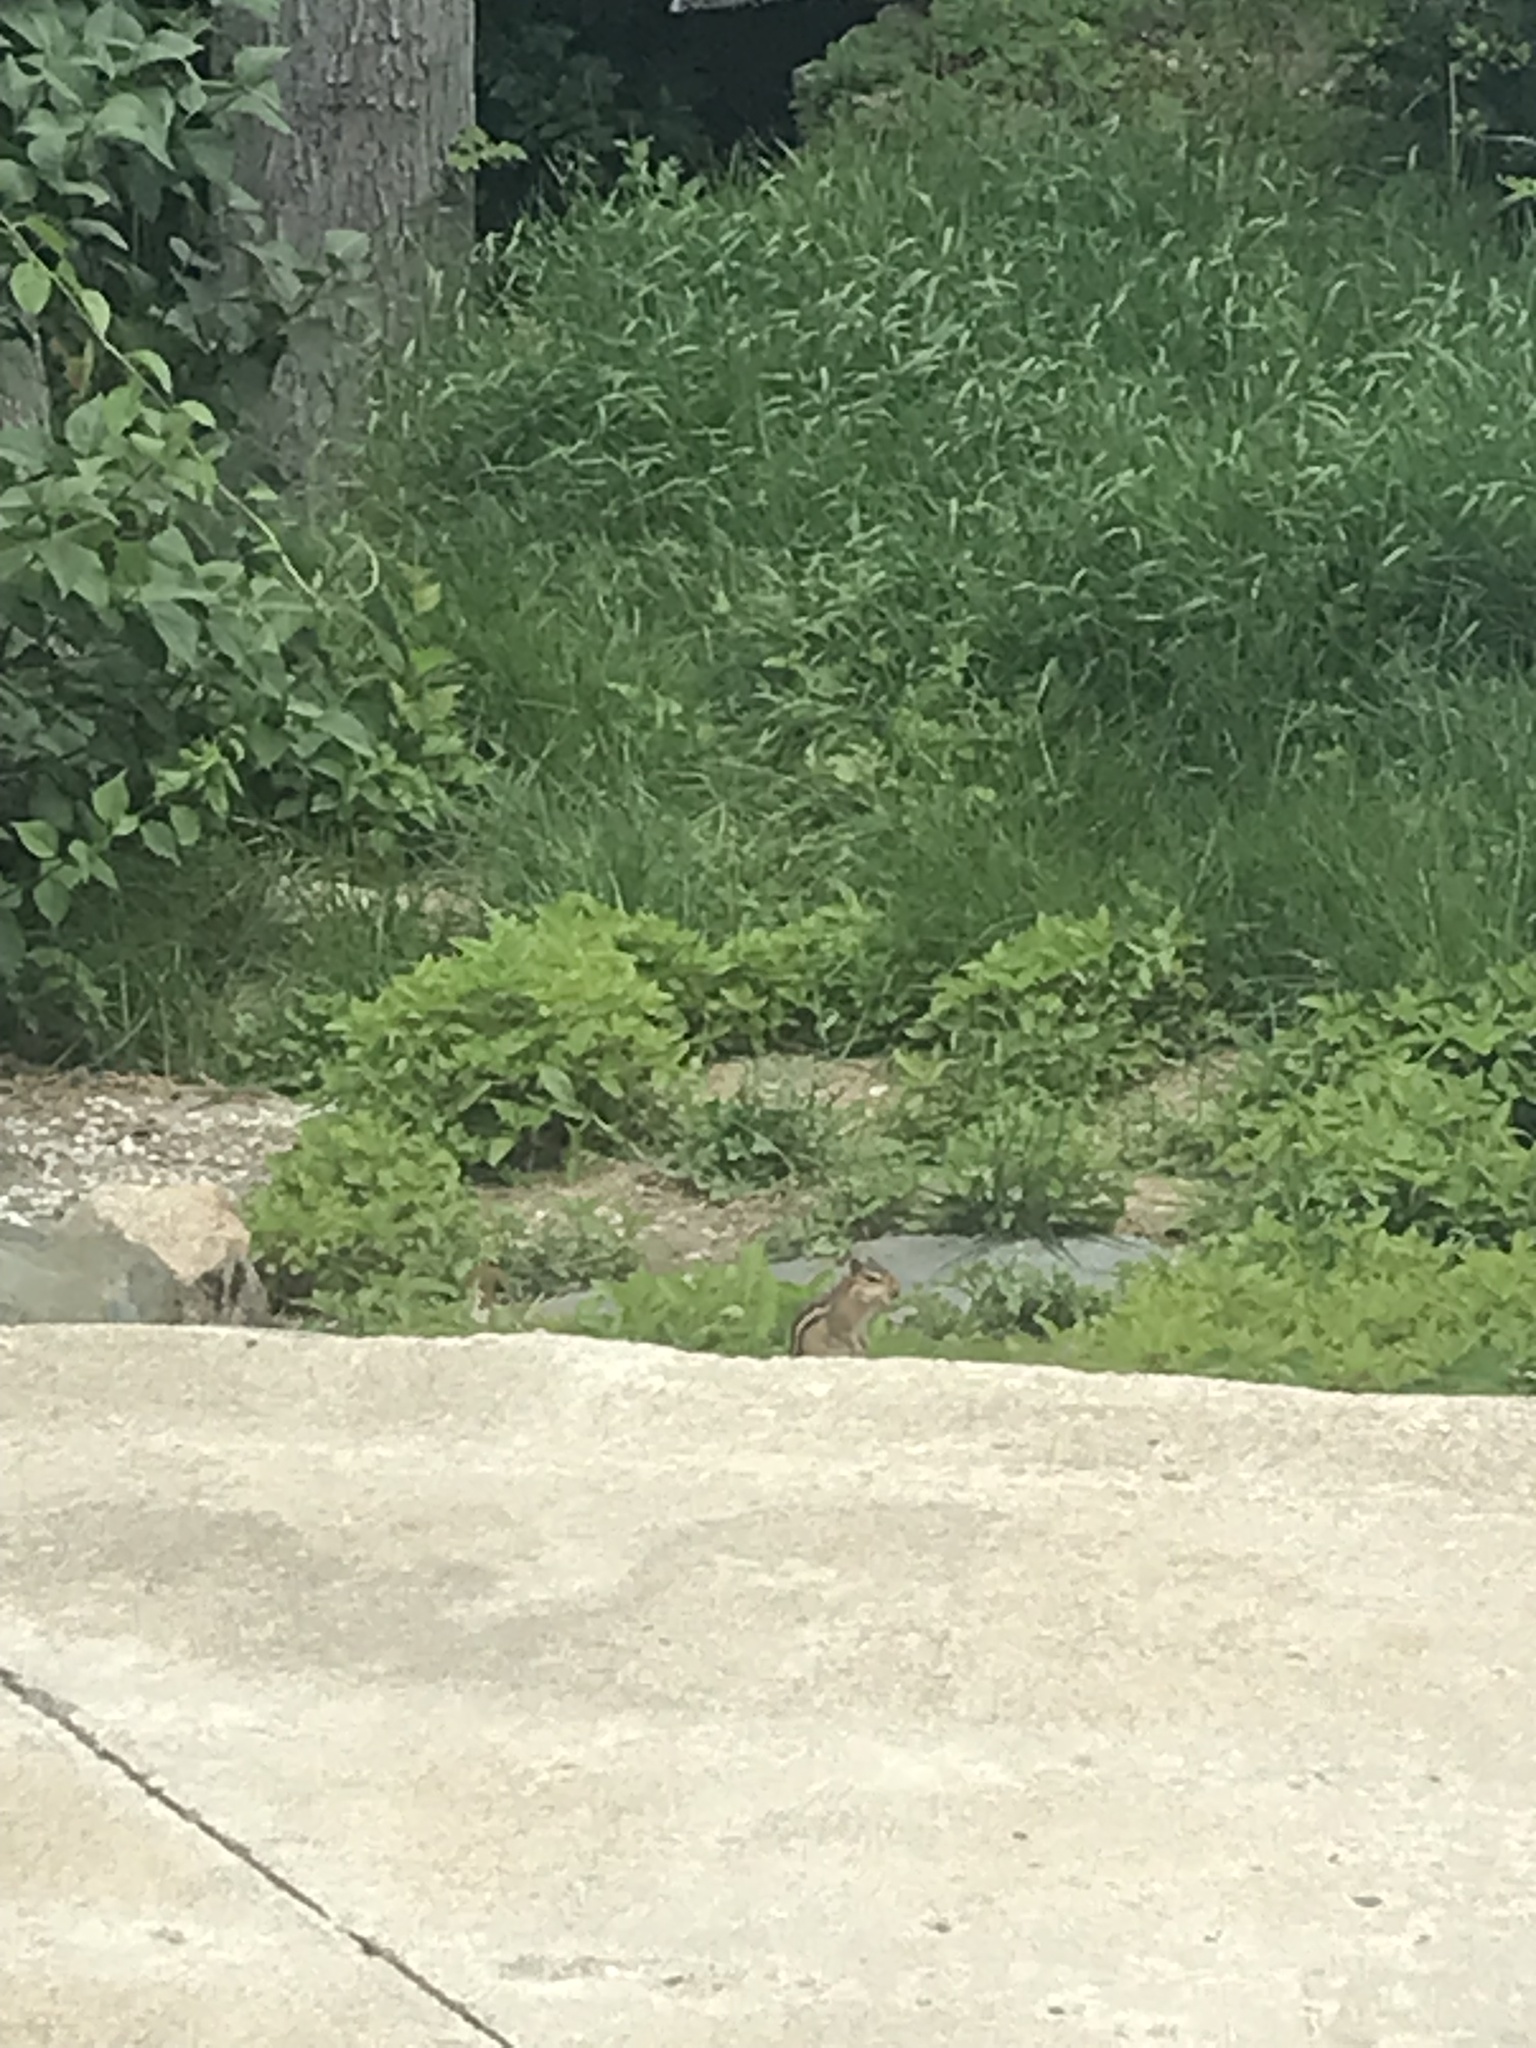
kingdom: Animalia
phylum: Chordata
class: Mammalia
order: Rodentia
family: Sciuridae
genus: Tamias
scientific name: Tamias striatus
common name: Eastern chipmunk
